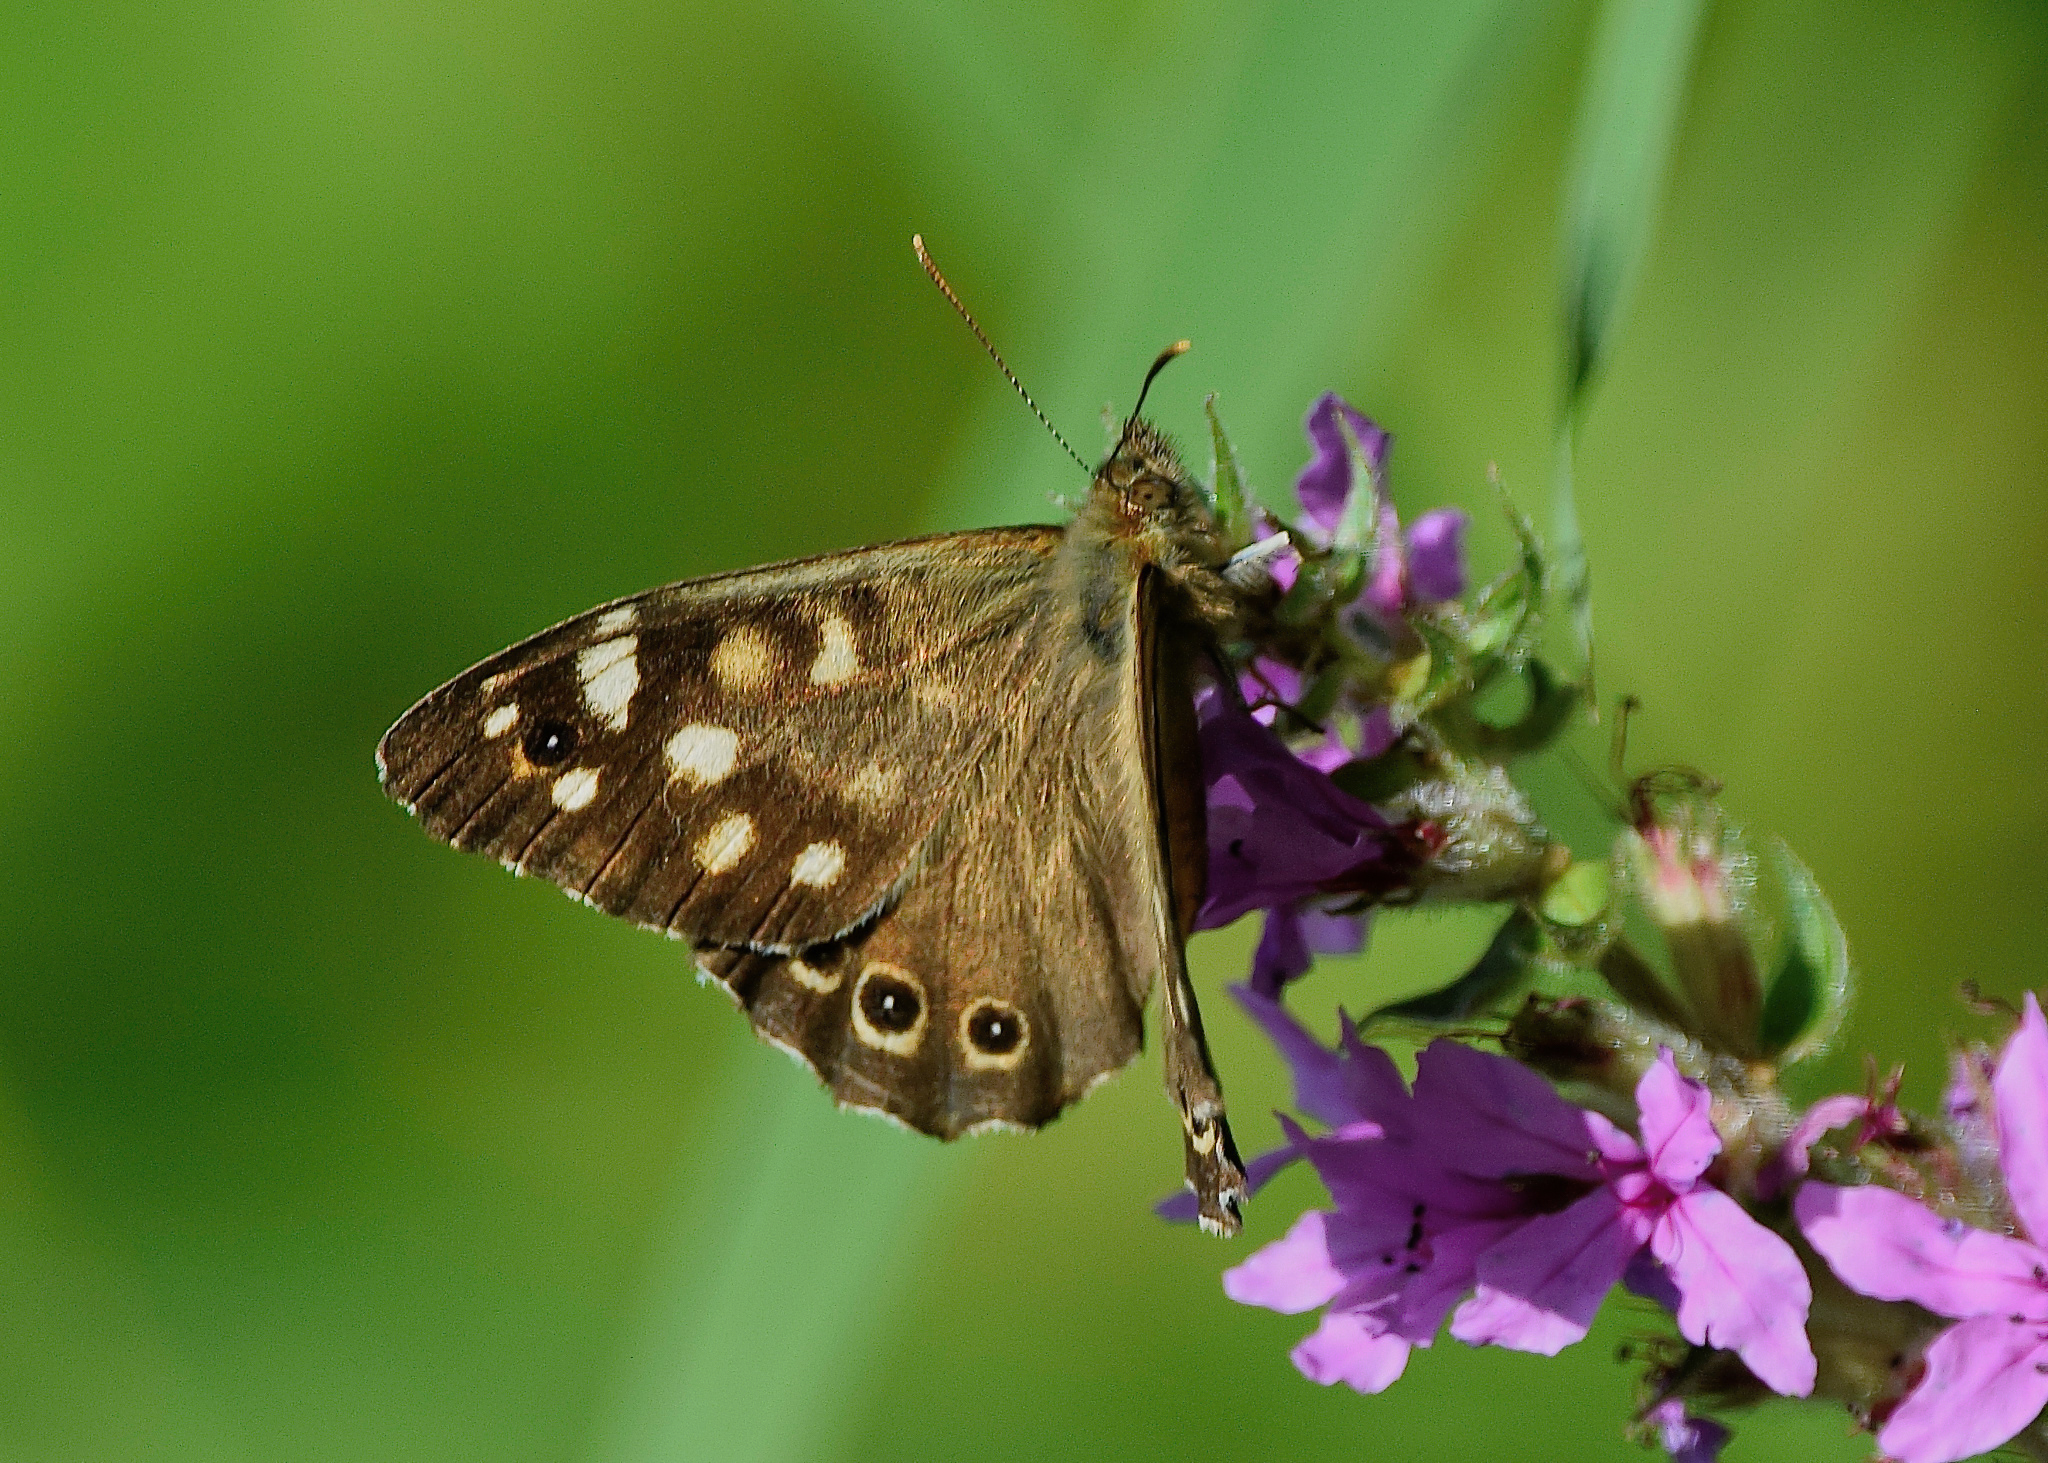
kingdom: Animalia
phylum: Arthropoda
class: Insecta
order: Lepidoptera
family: Nymphalidae
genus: Pararge
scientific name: Pararge aegeria
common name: Speckled wood
